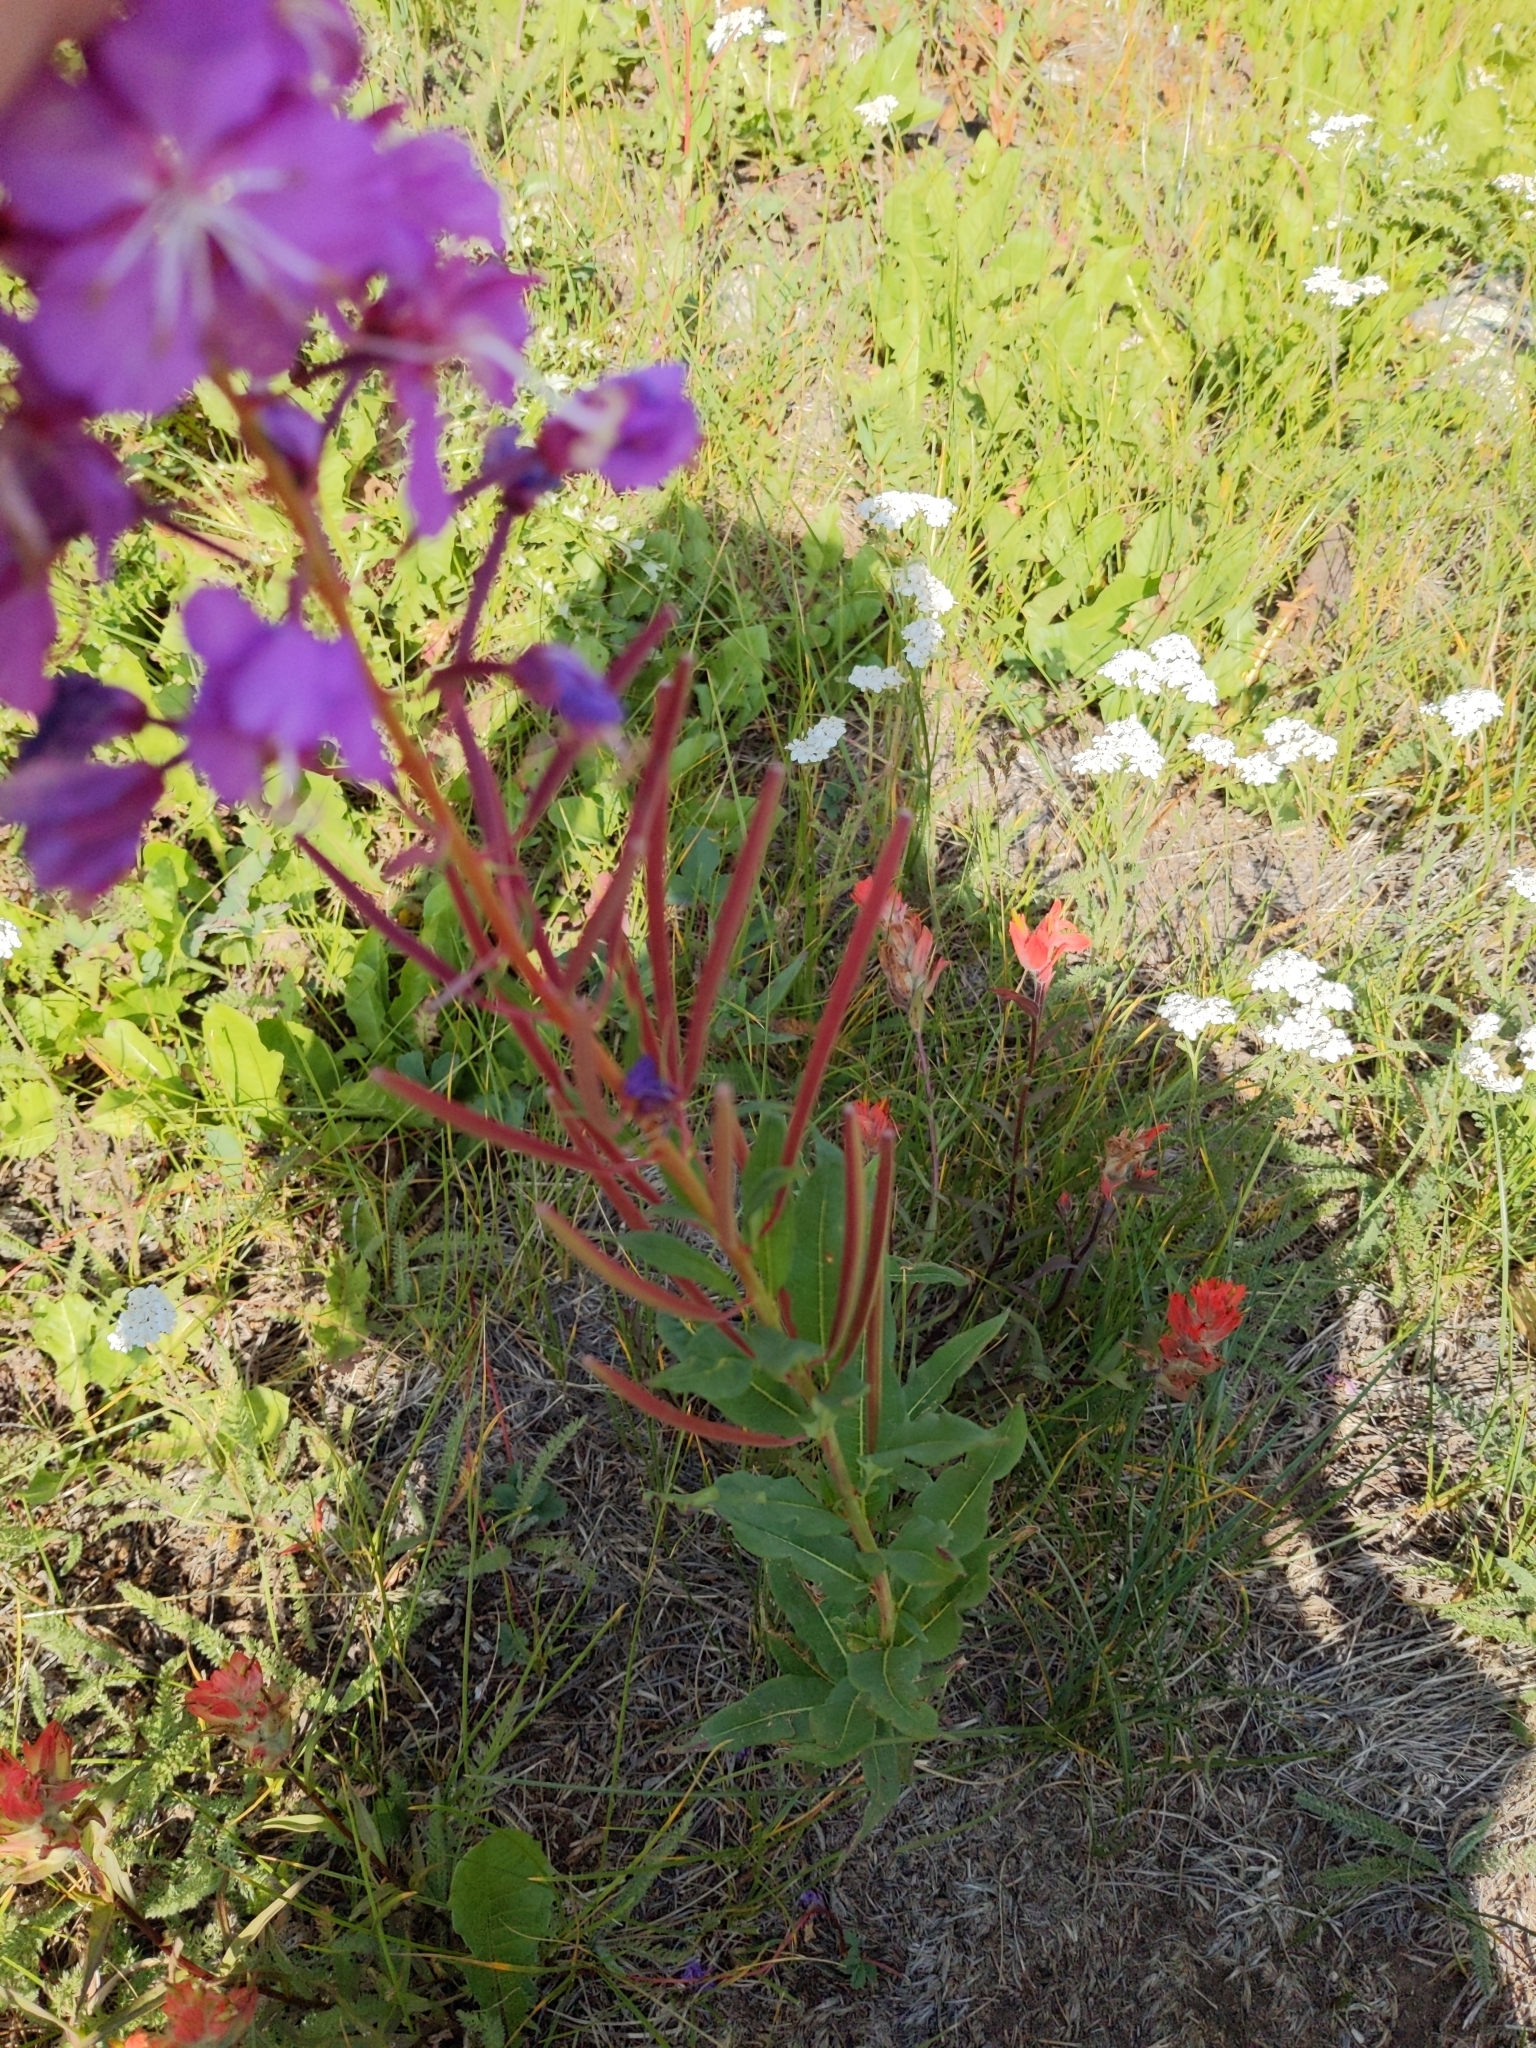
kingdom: Plantae
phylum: Tracheophyta
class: Magnoliopsida
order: Myrtales
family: Onagraceae
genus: Chamaenerion
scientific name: Chamaenerion angustifolium
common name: Fireweed
